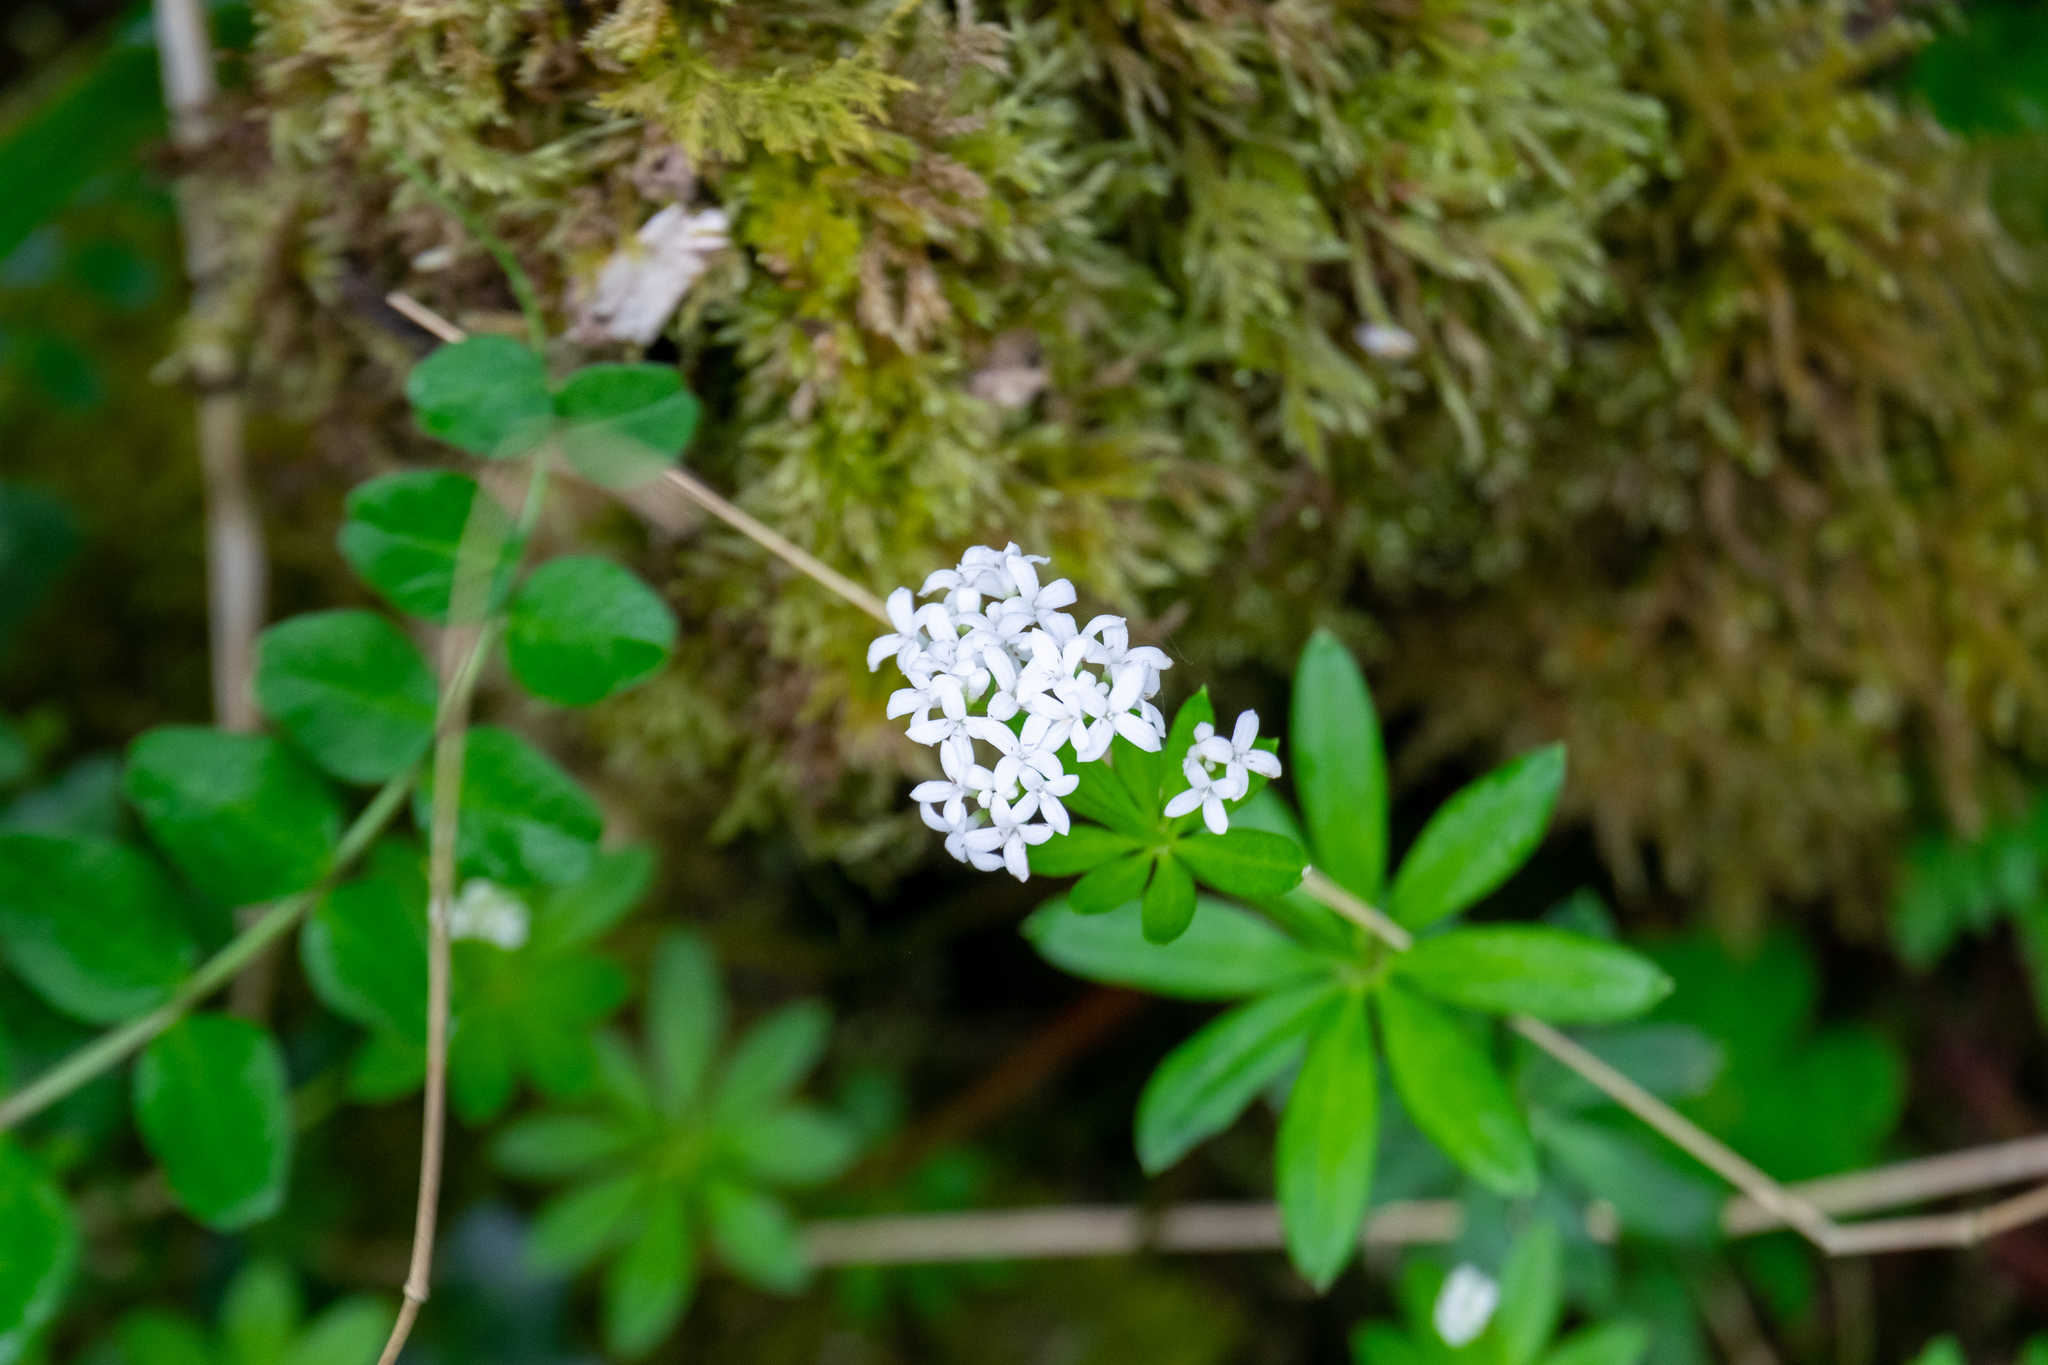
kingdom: Plantae
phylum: Tracheophyta
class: Magnoliopsida
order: Gentianales
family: Rubiaceae
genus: Galium
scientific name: Galium odoratum
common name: Sweet woodruff
